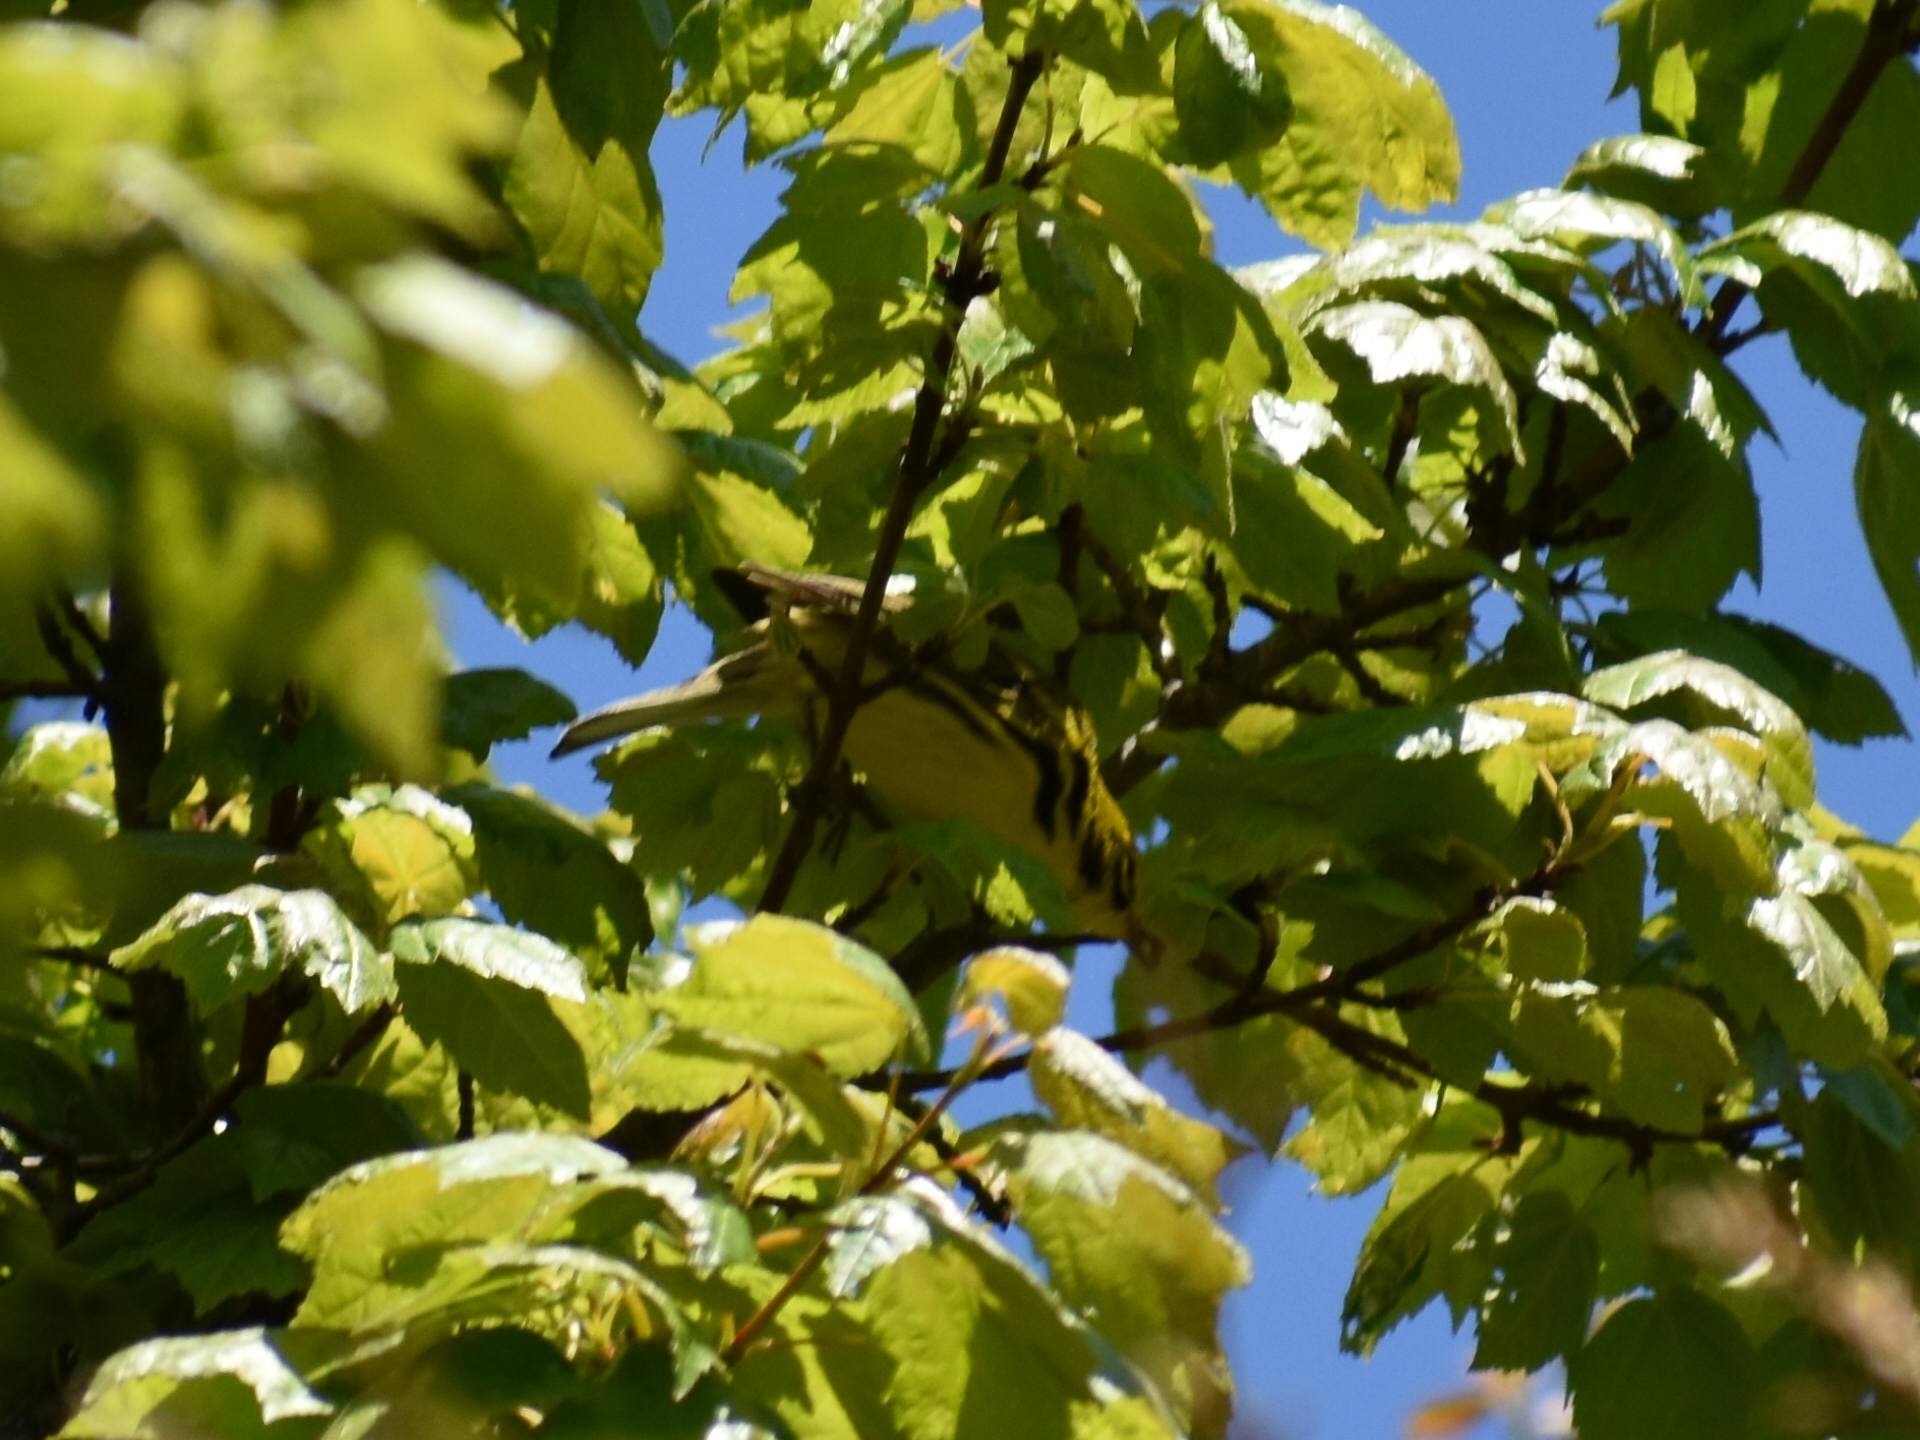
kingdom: Animalia
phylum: Chordata
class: Aves
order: Passeriformes
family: Parulidae
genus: Setophaga
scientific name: Setophaga discolor
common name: Prairie warbler
